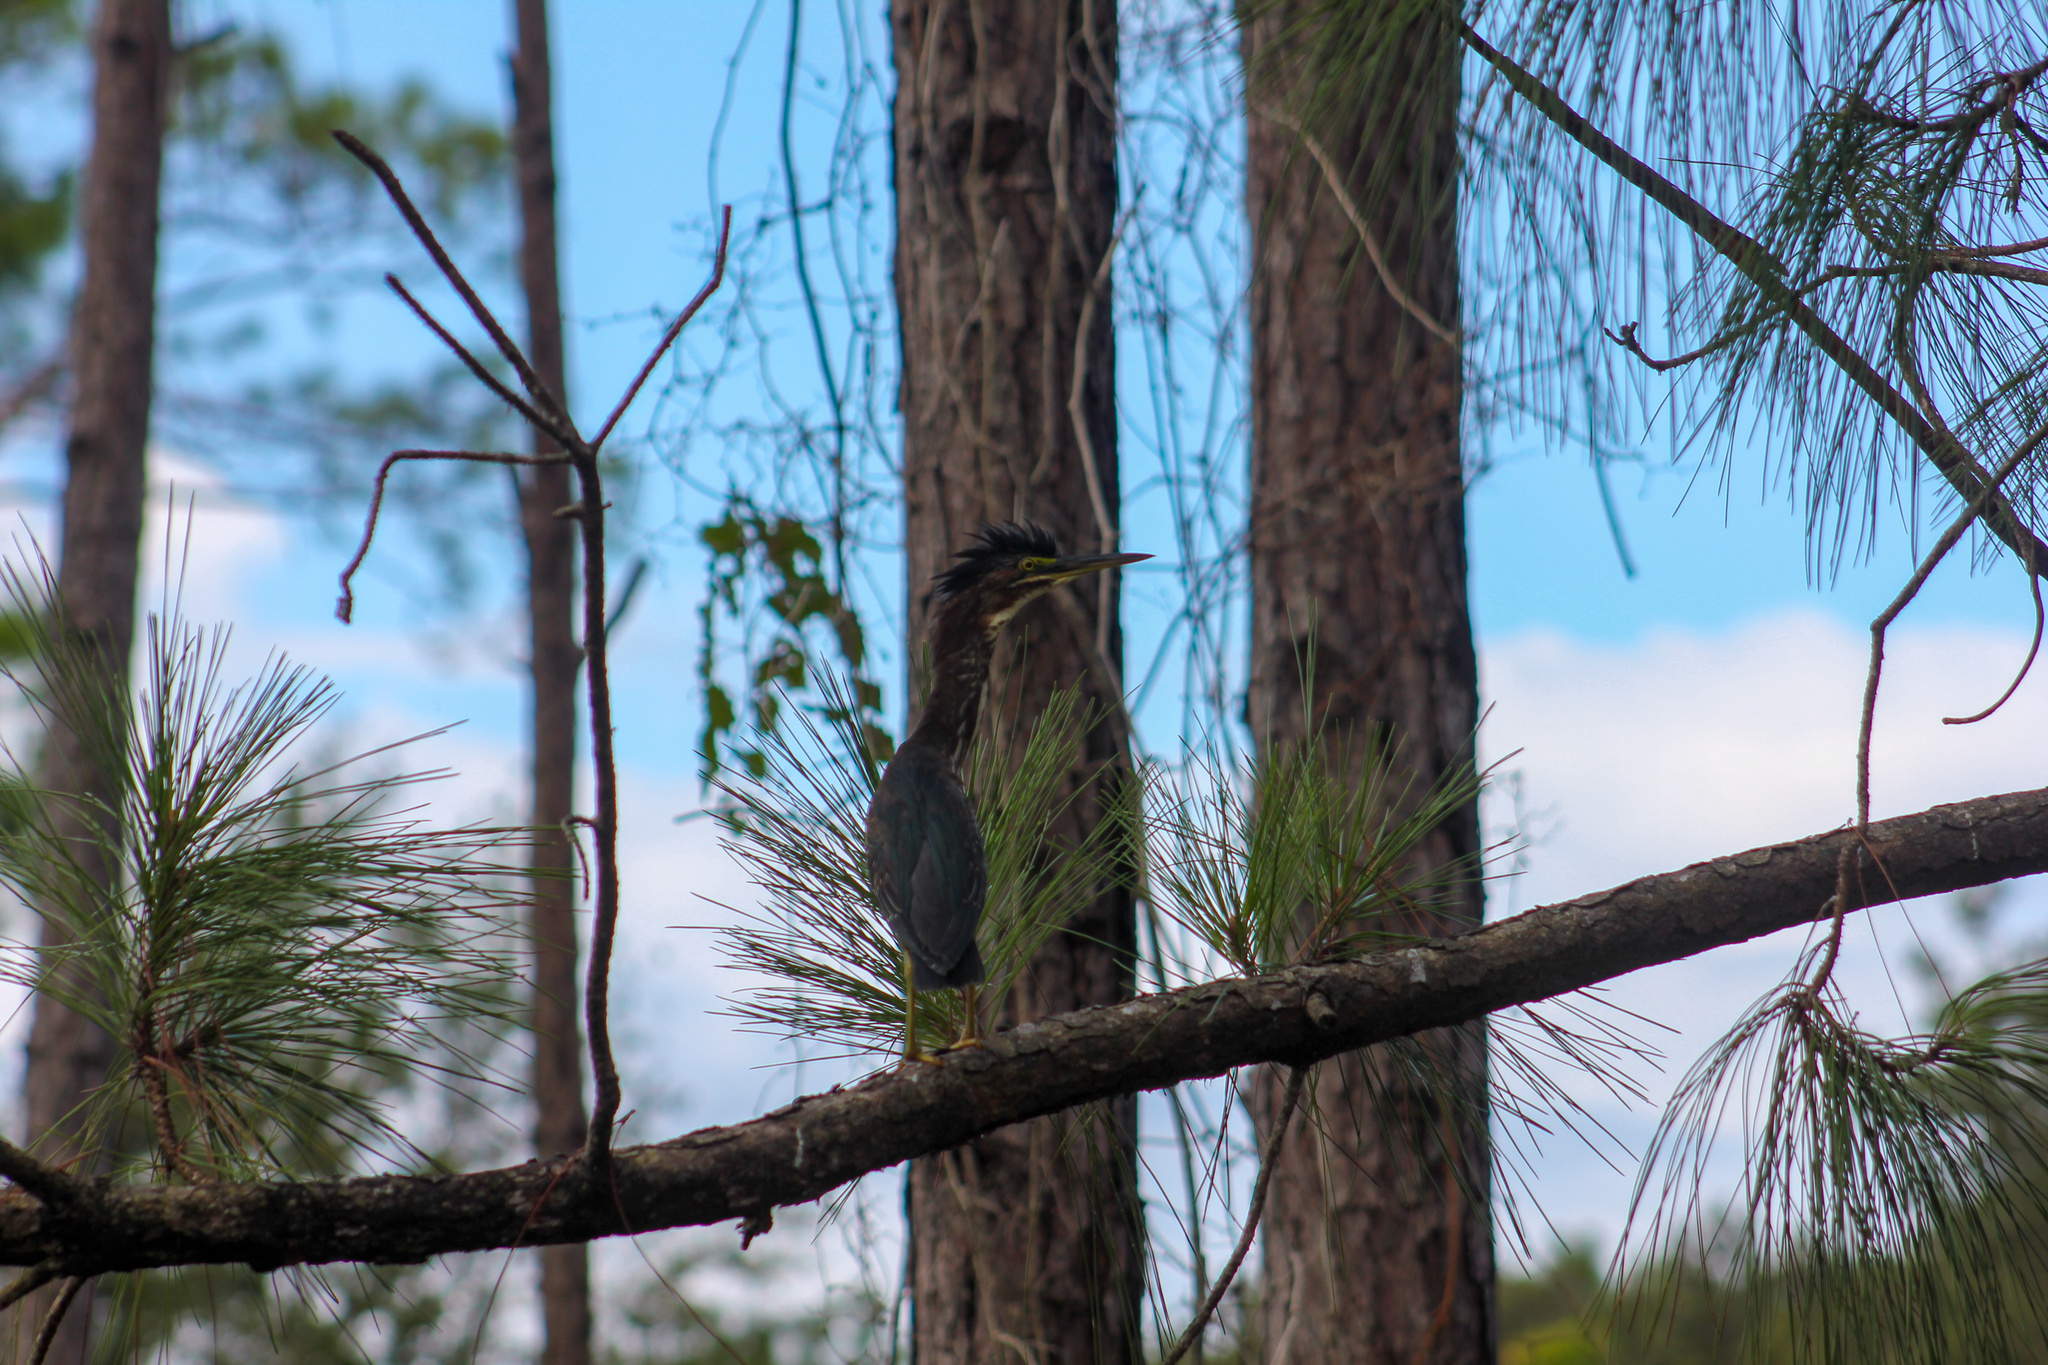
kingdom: Animalia
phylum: Chordata
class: Aves
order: Pelecaniformes
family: Ardeidae
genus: Butorides
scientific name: Butorides virescens
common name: Green heron
